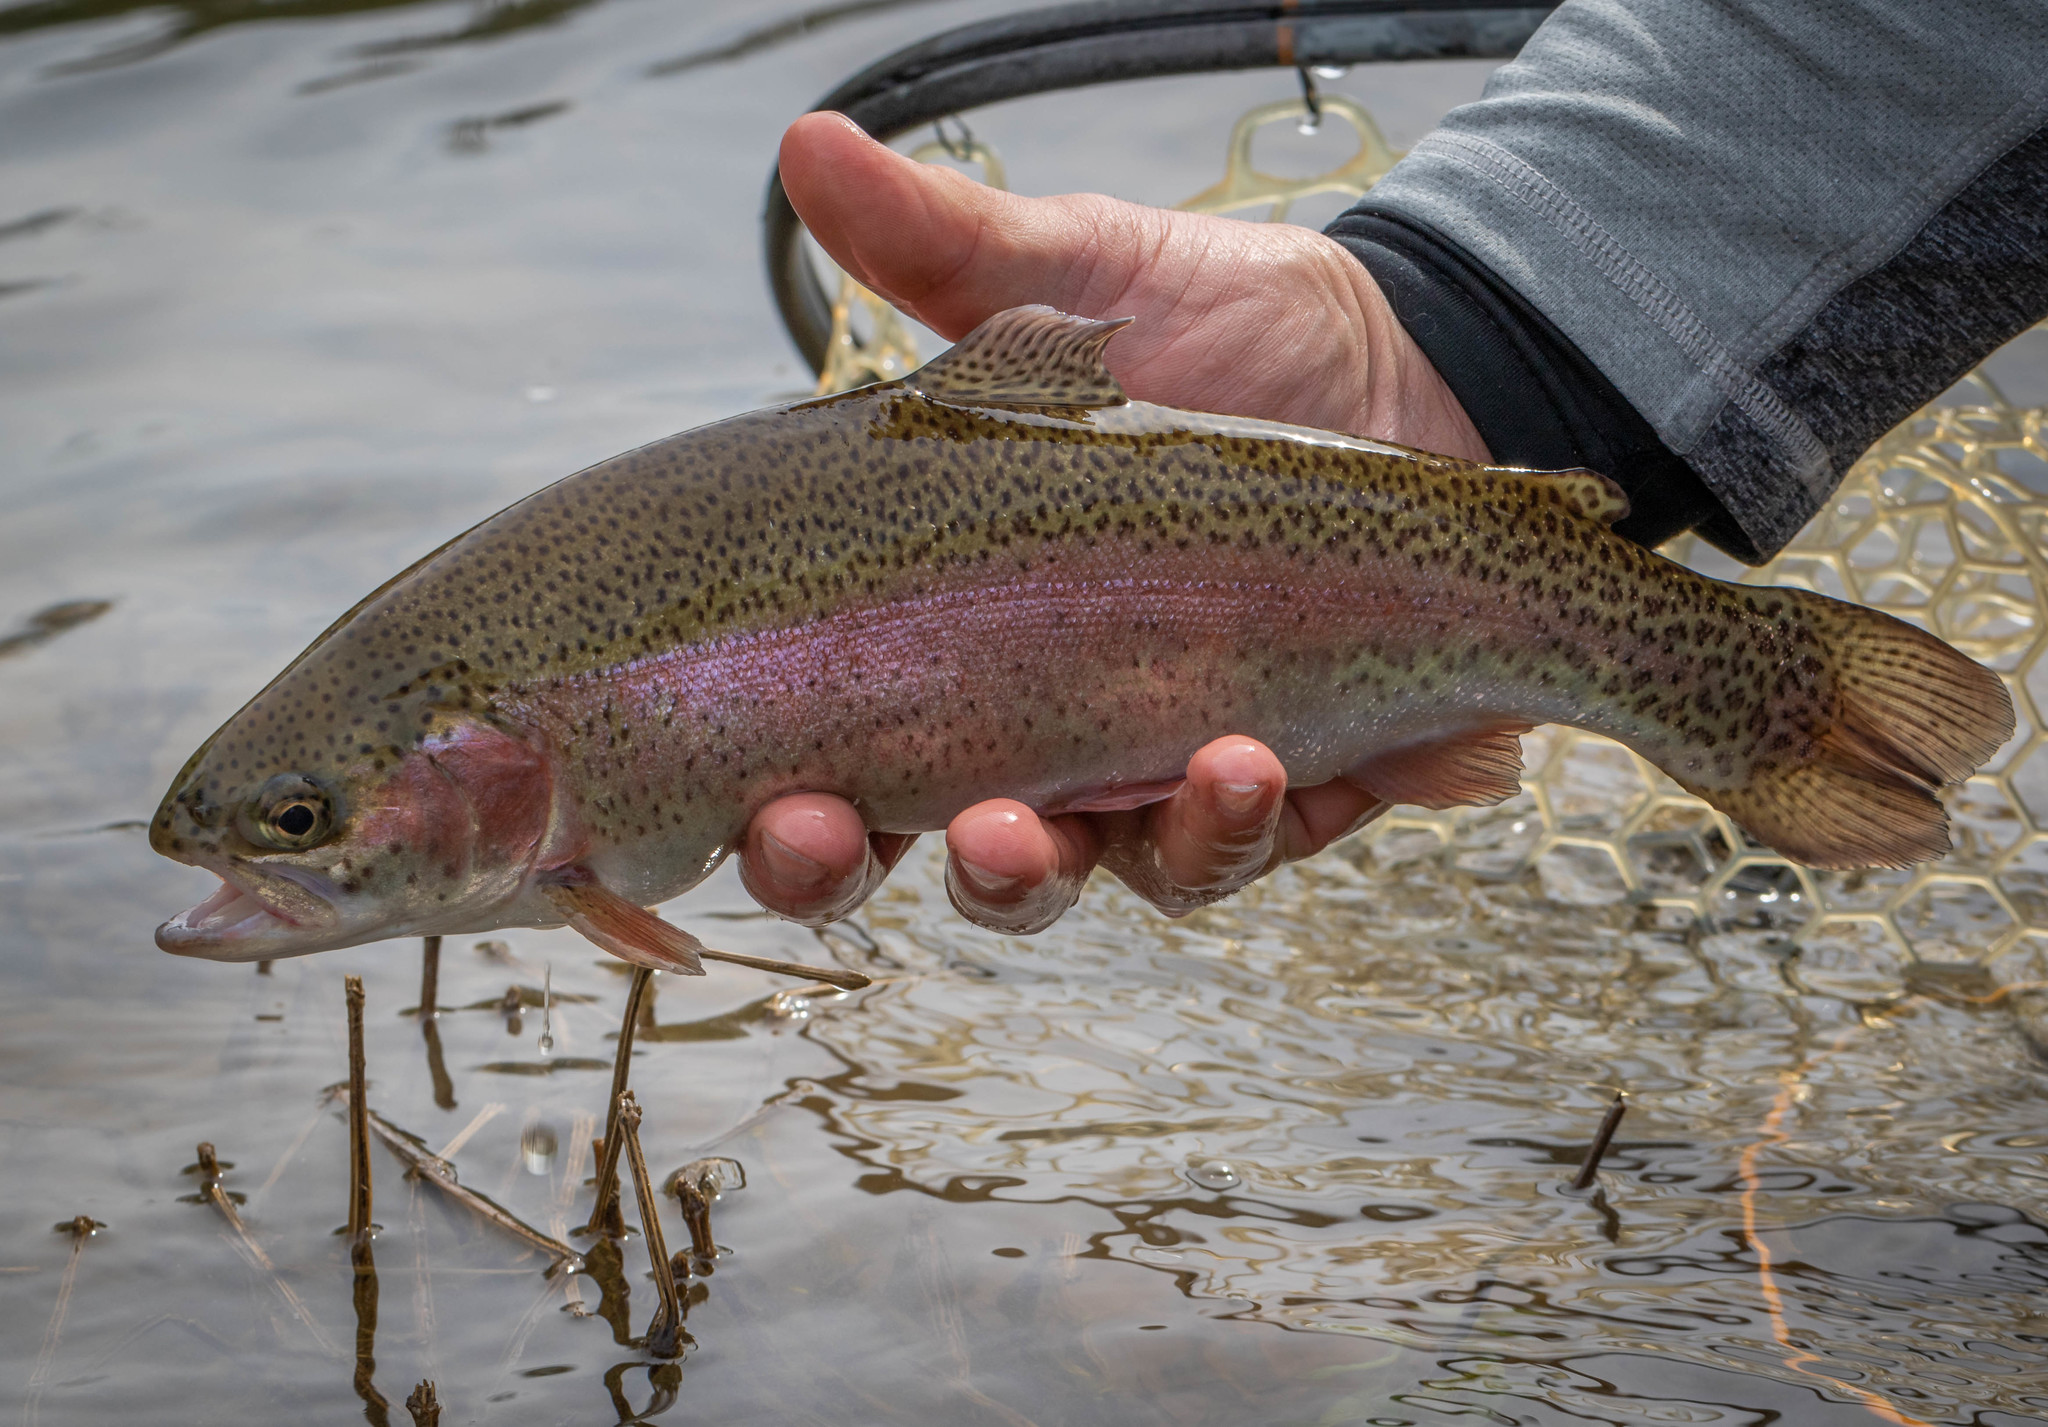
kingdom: Animalia
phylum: Chordata
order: Salmoniformes
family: Salmonidae
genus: Oncorhynchus
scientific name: Oncorhynchus mykiss
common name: Rainbow trout
